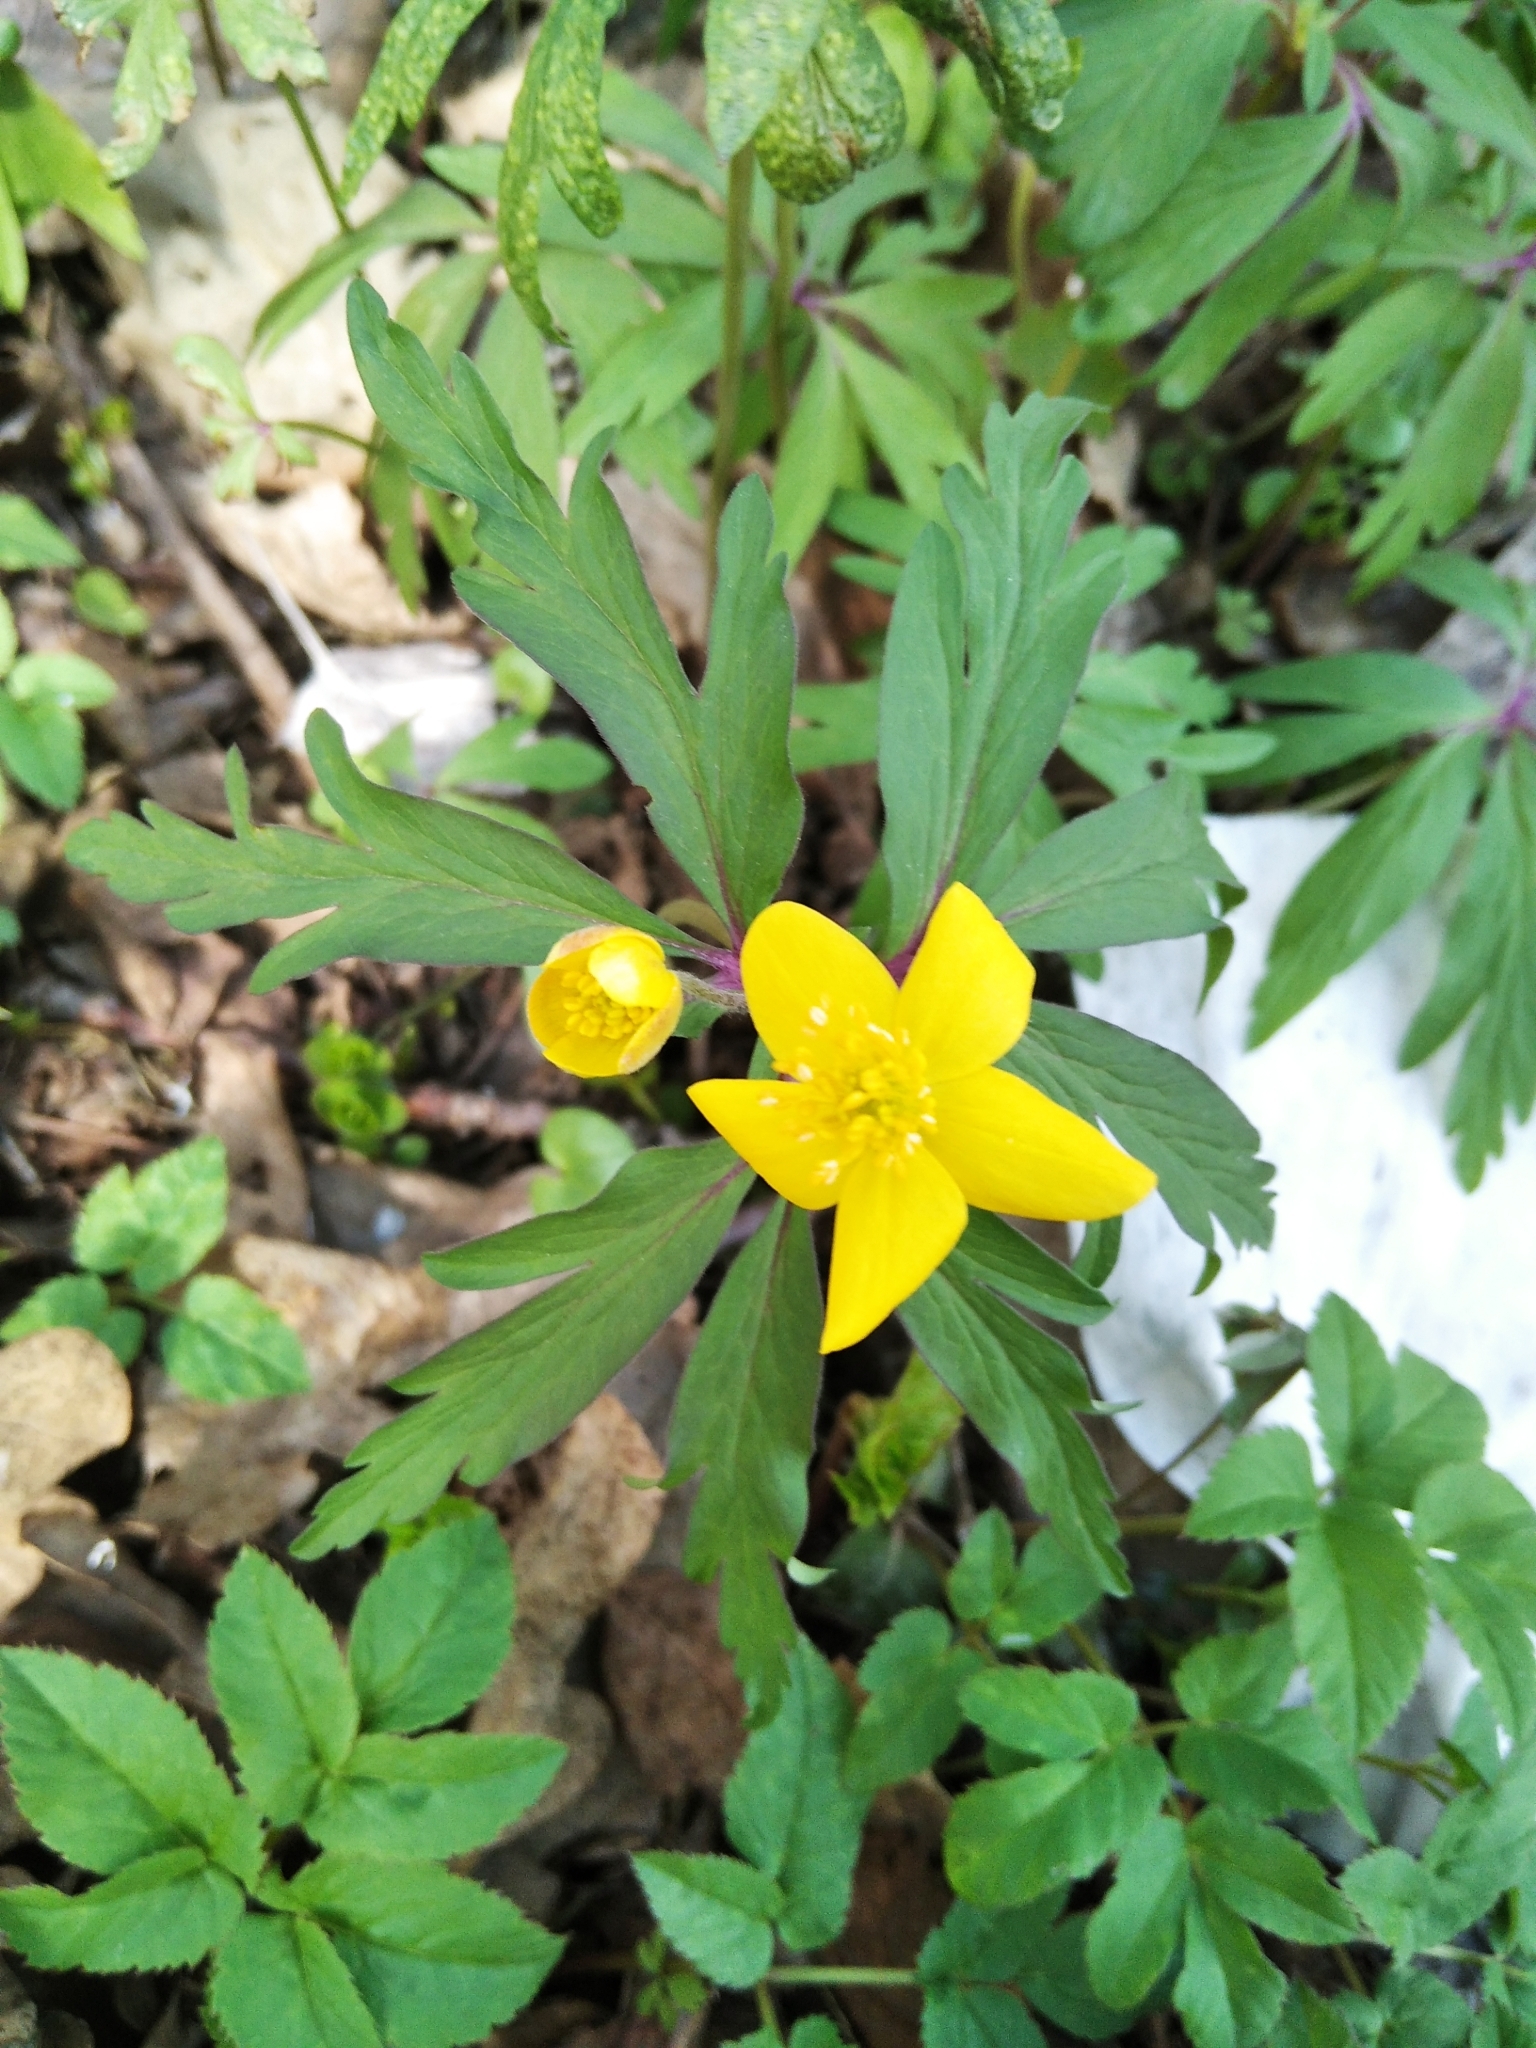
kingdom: Plantae
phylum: Tracheophyta
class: Magnoliopsida
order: Ranunculales
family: Ranunculaceae
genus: Anemone
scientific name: Anemone ranunculoides
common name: Yellow anemone
